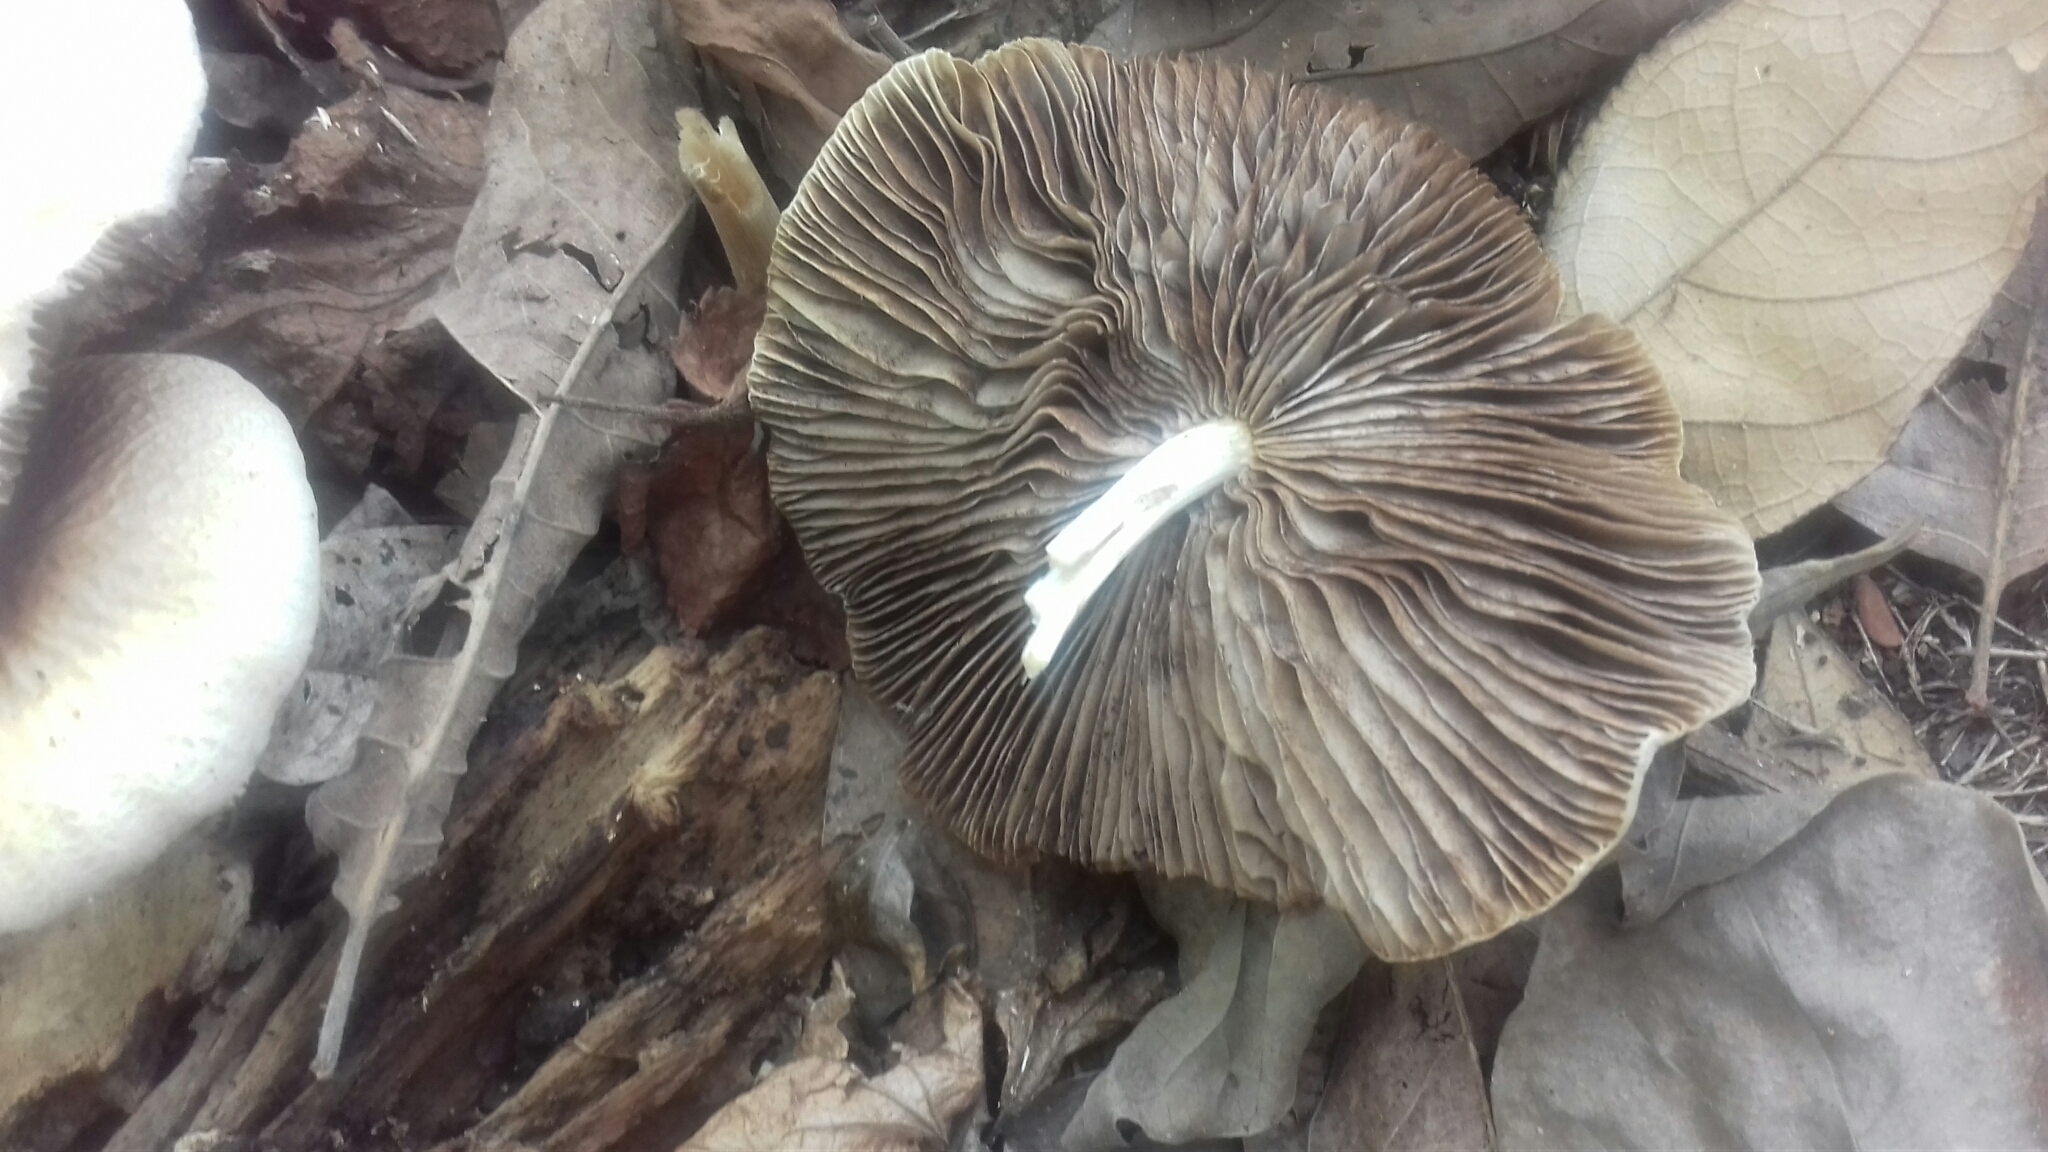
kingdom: Fungi
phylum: Basidiomycota
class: Agaricomycetes
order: Agaricales
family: Psathyrellaceae
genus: Candolleomyces
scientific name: Candolleomyces candolleanus
